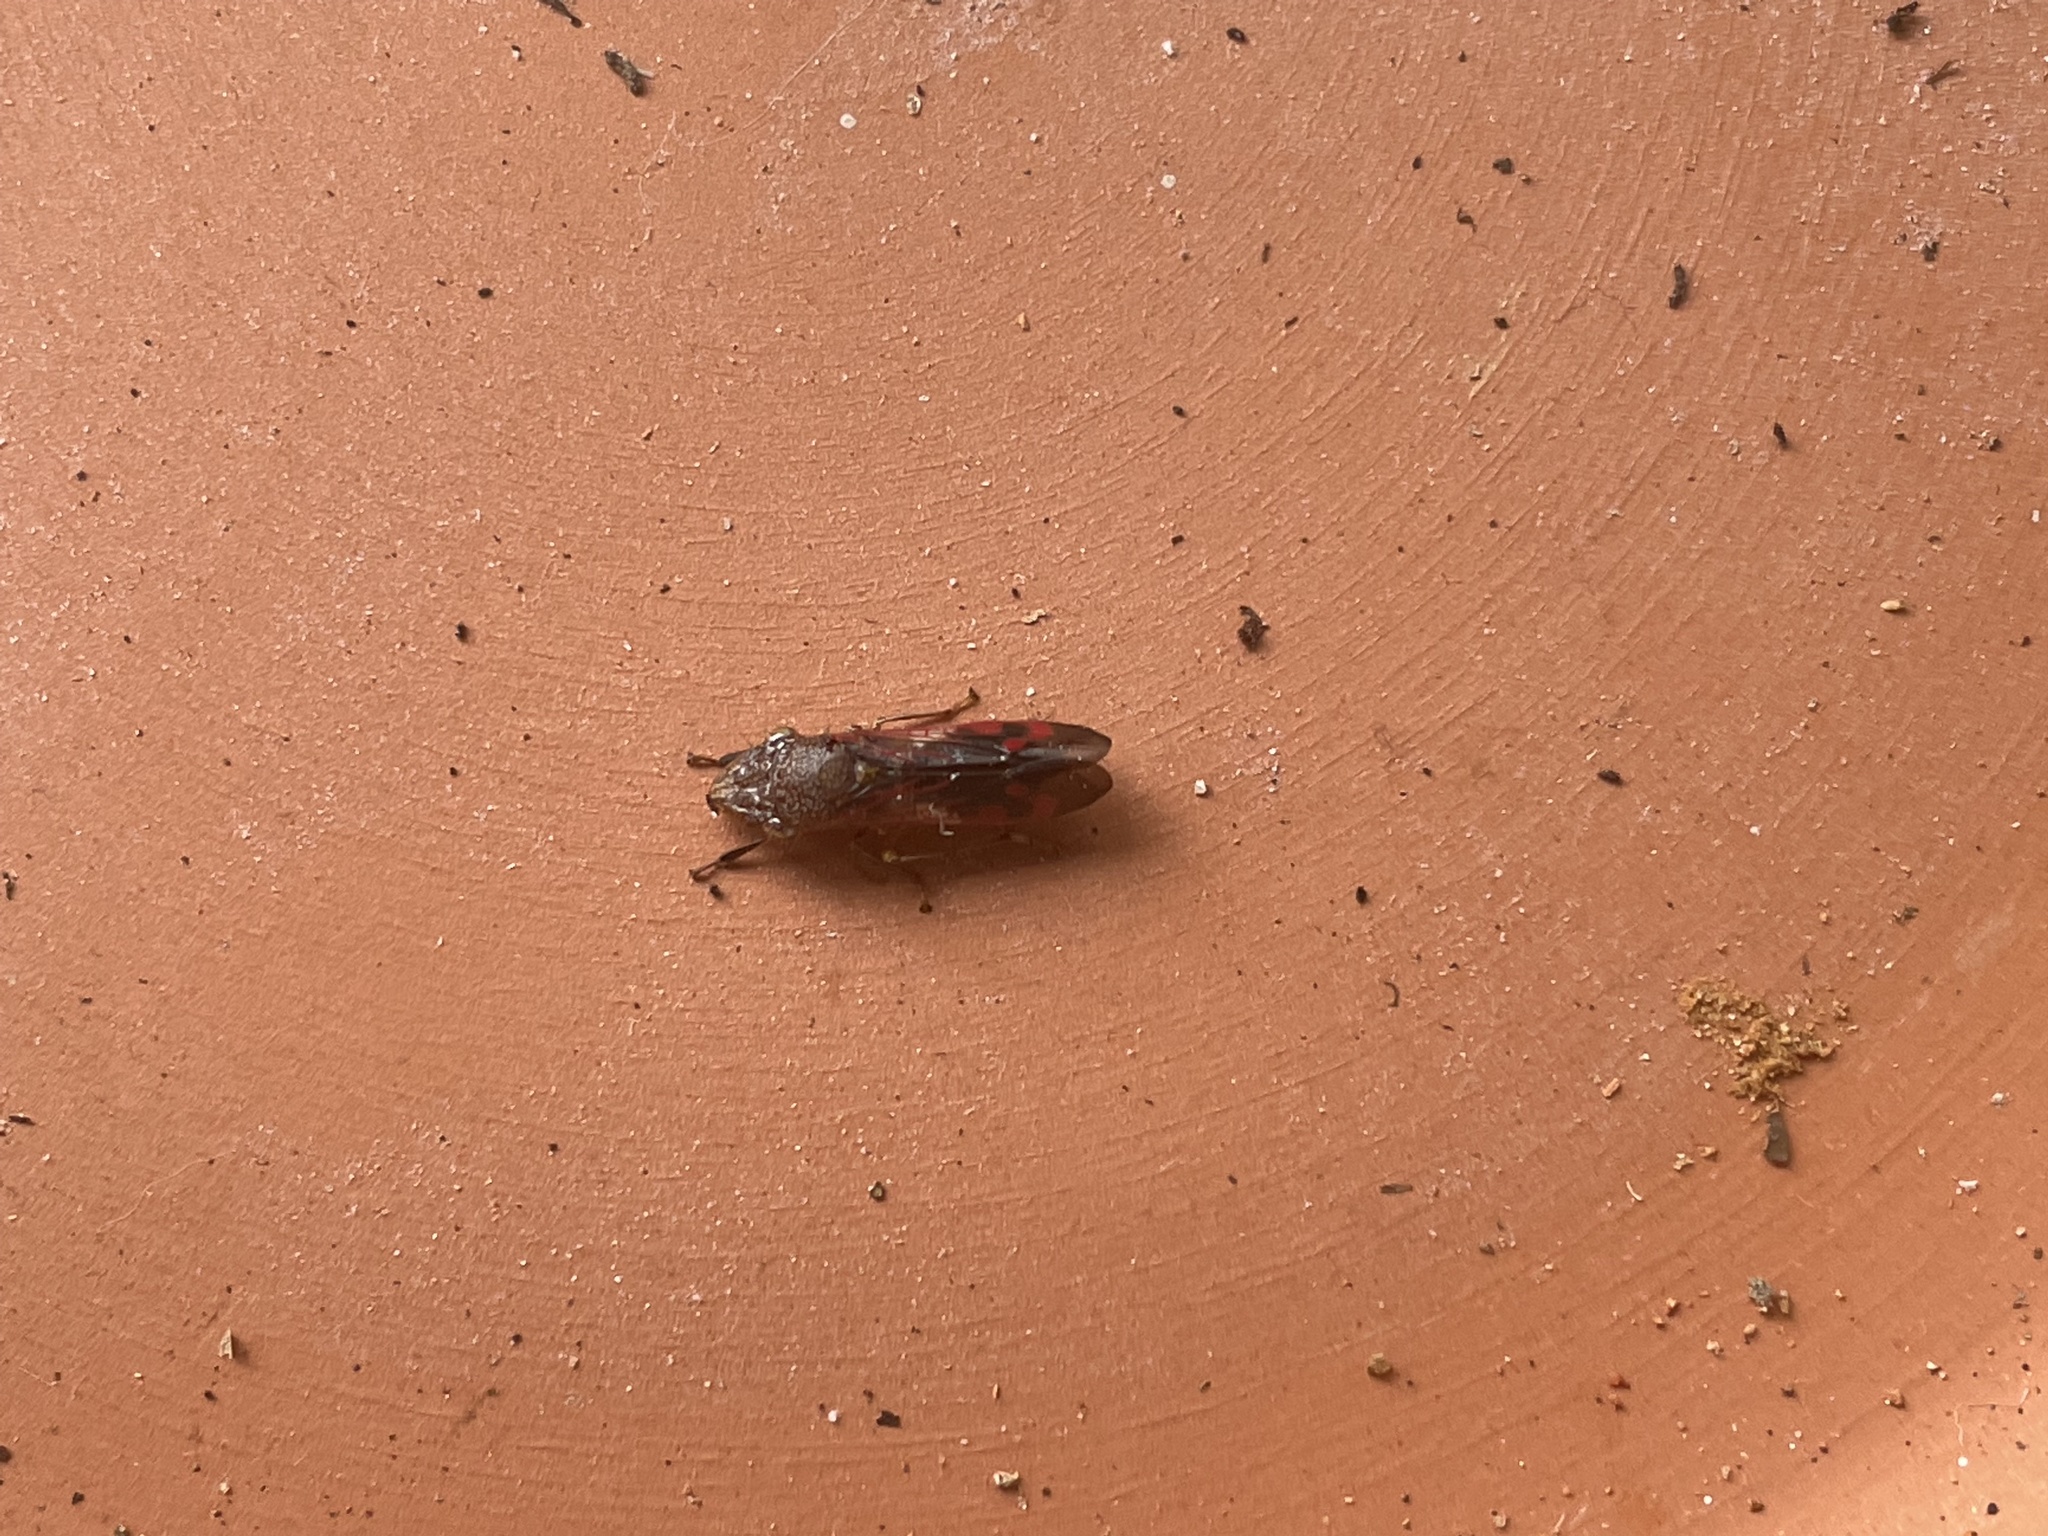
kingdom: Animalia
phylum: Arthropoda
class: Insecta
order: Hemiptera
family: Cicadellidae
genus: Homalodisca
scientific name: Homalodisca vitripennis
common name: Glassy-winged sharpshooter
